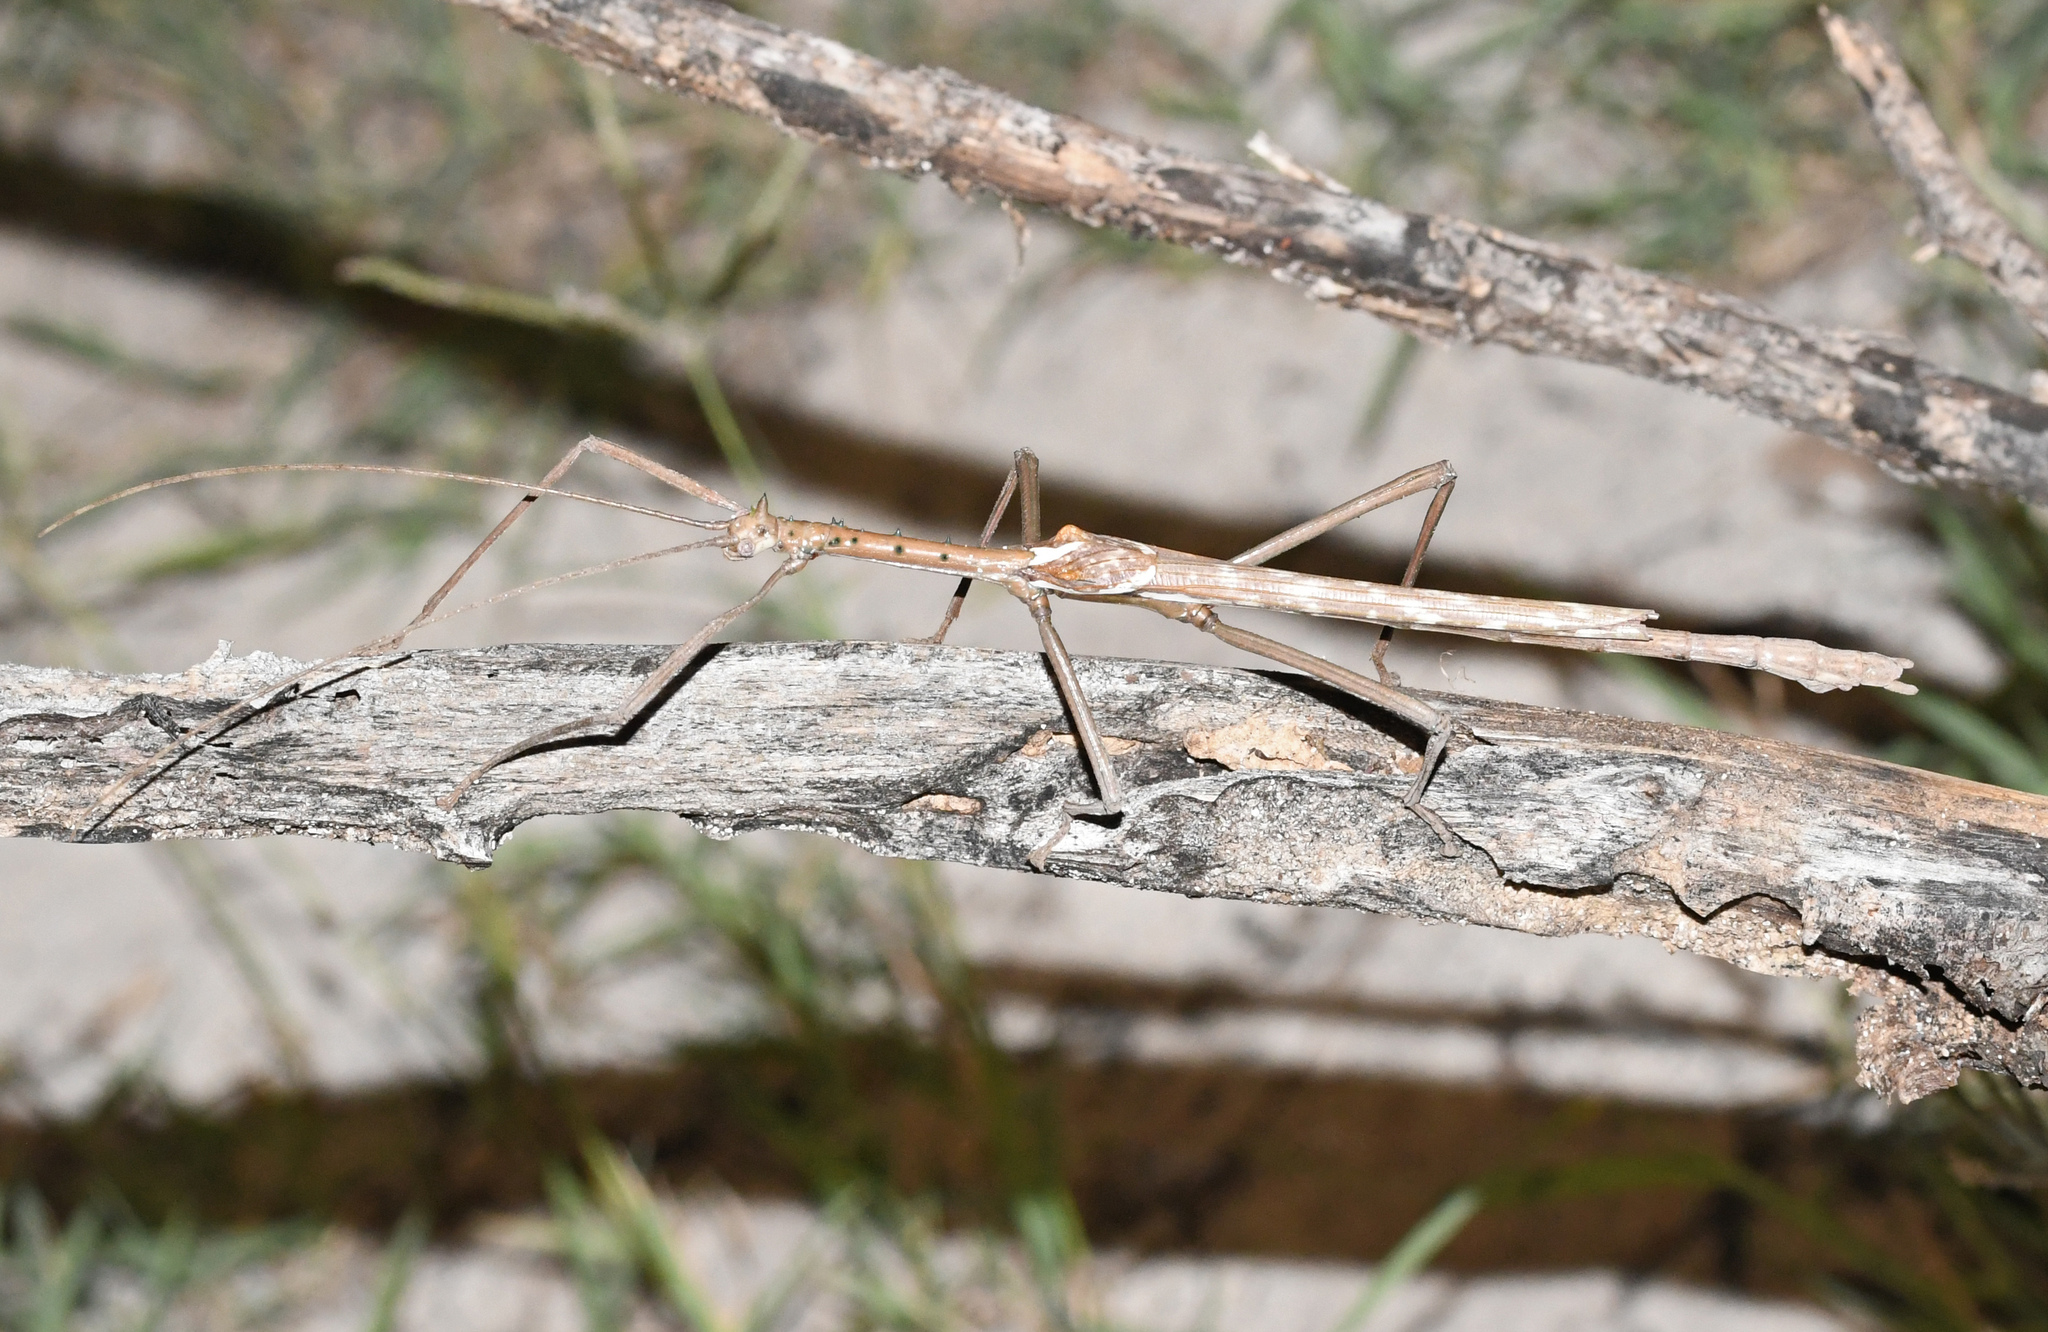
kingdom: Animalia
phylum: Arthropoda
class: Insecta
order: Phasmida
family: Phasmatidae
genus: Haplopus
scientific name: Haplopus micropterus
